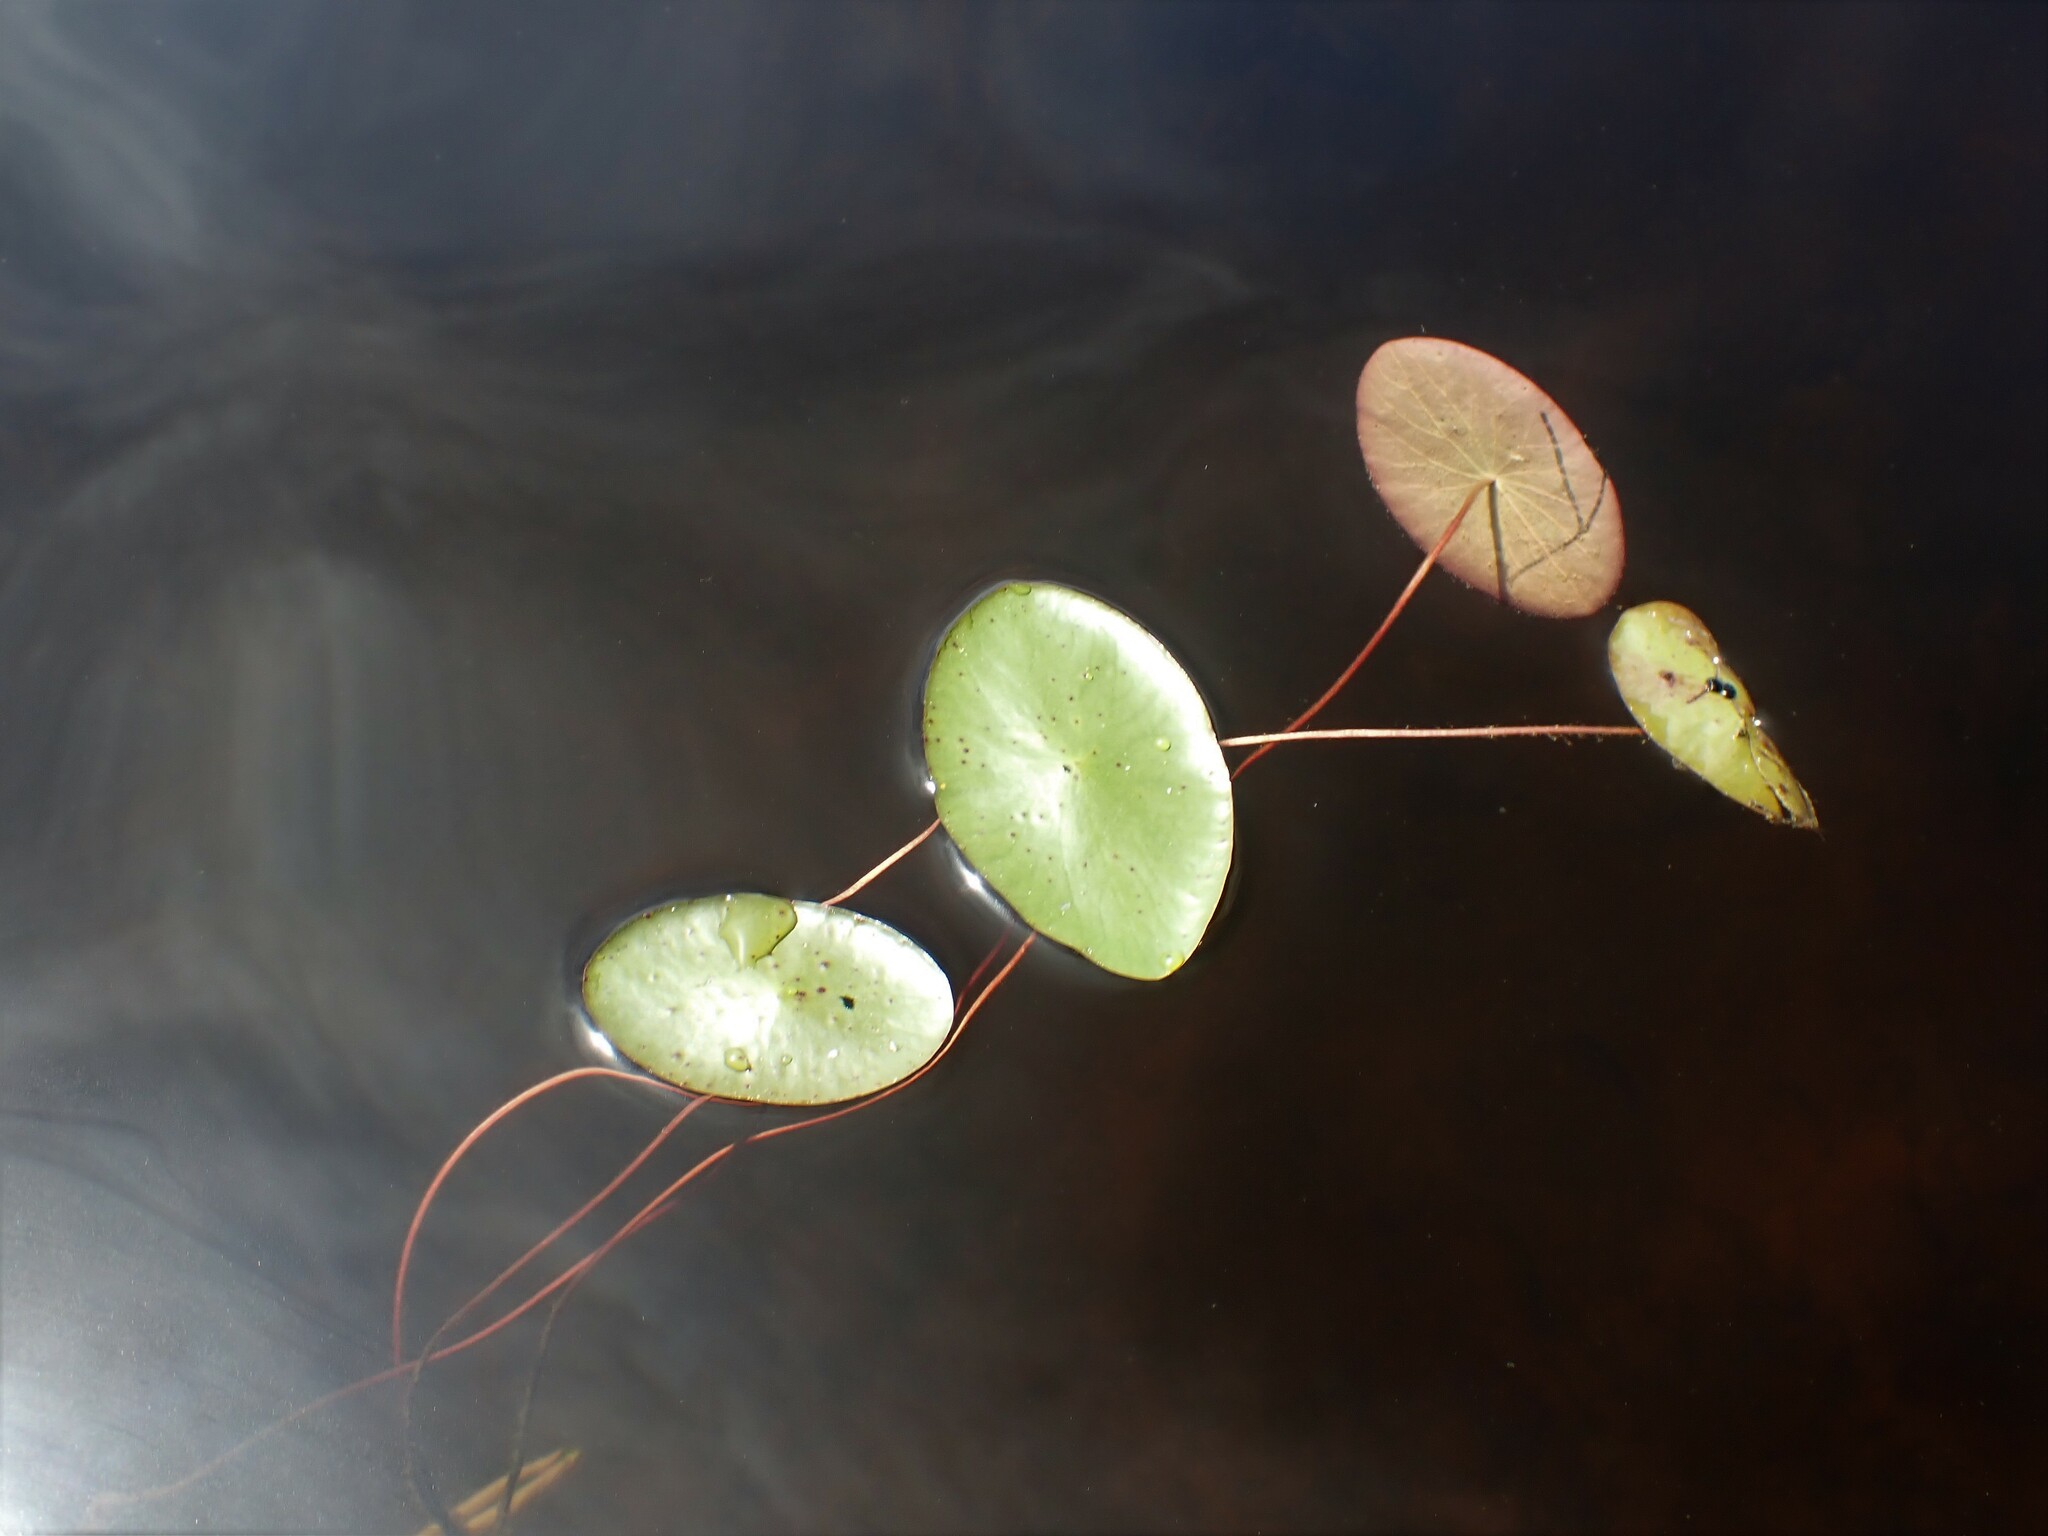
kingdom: Plantae
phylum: Tracheophyta
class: Magnoliopsida
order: Nymphaeales
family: Cabombaceae
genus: Brasenia
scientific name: Brasenia schreberi
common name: Water-shield
